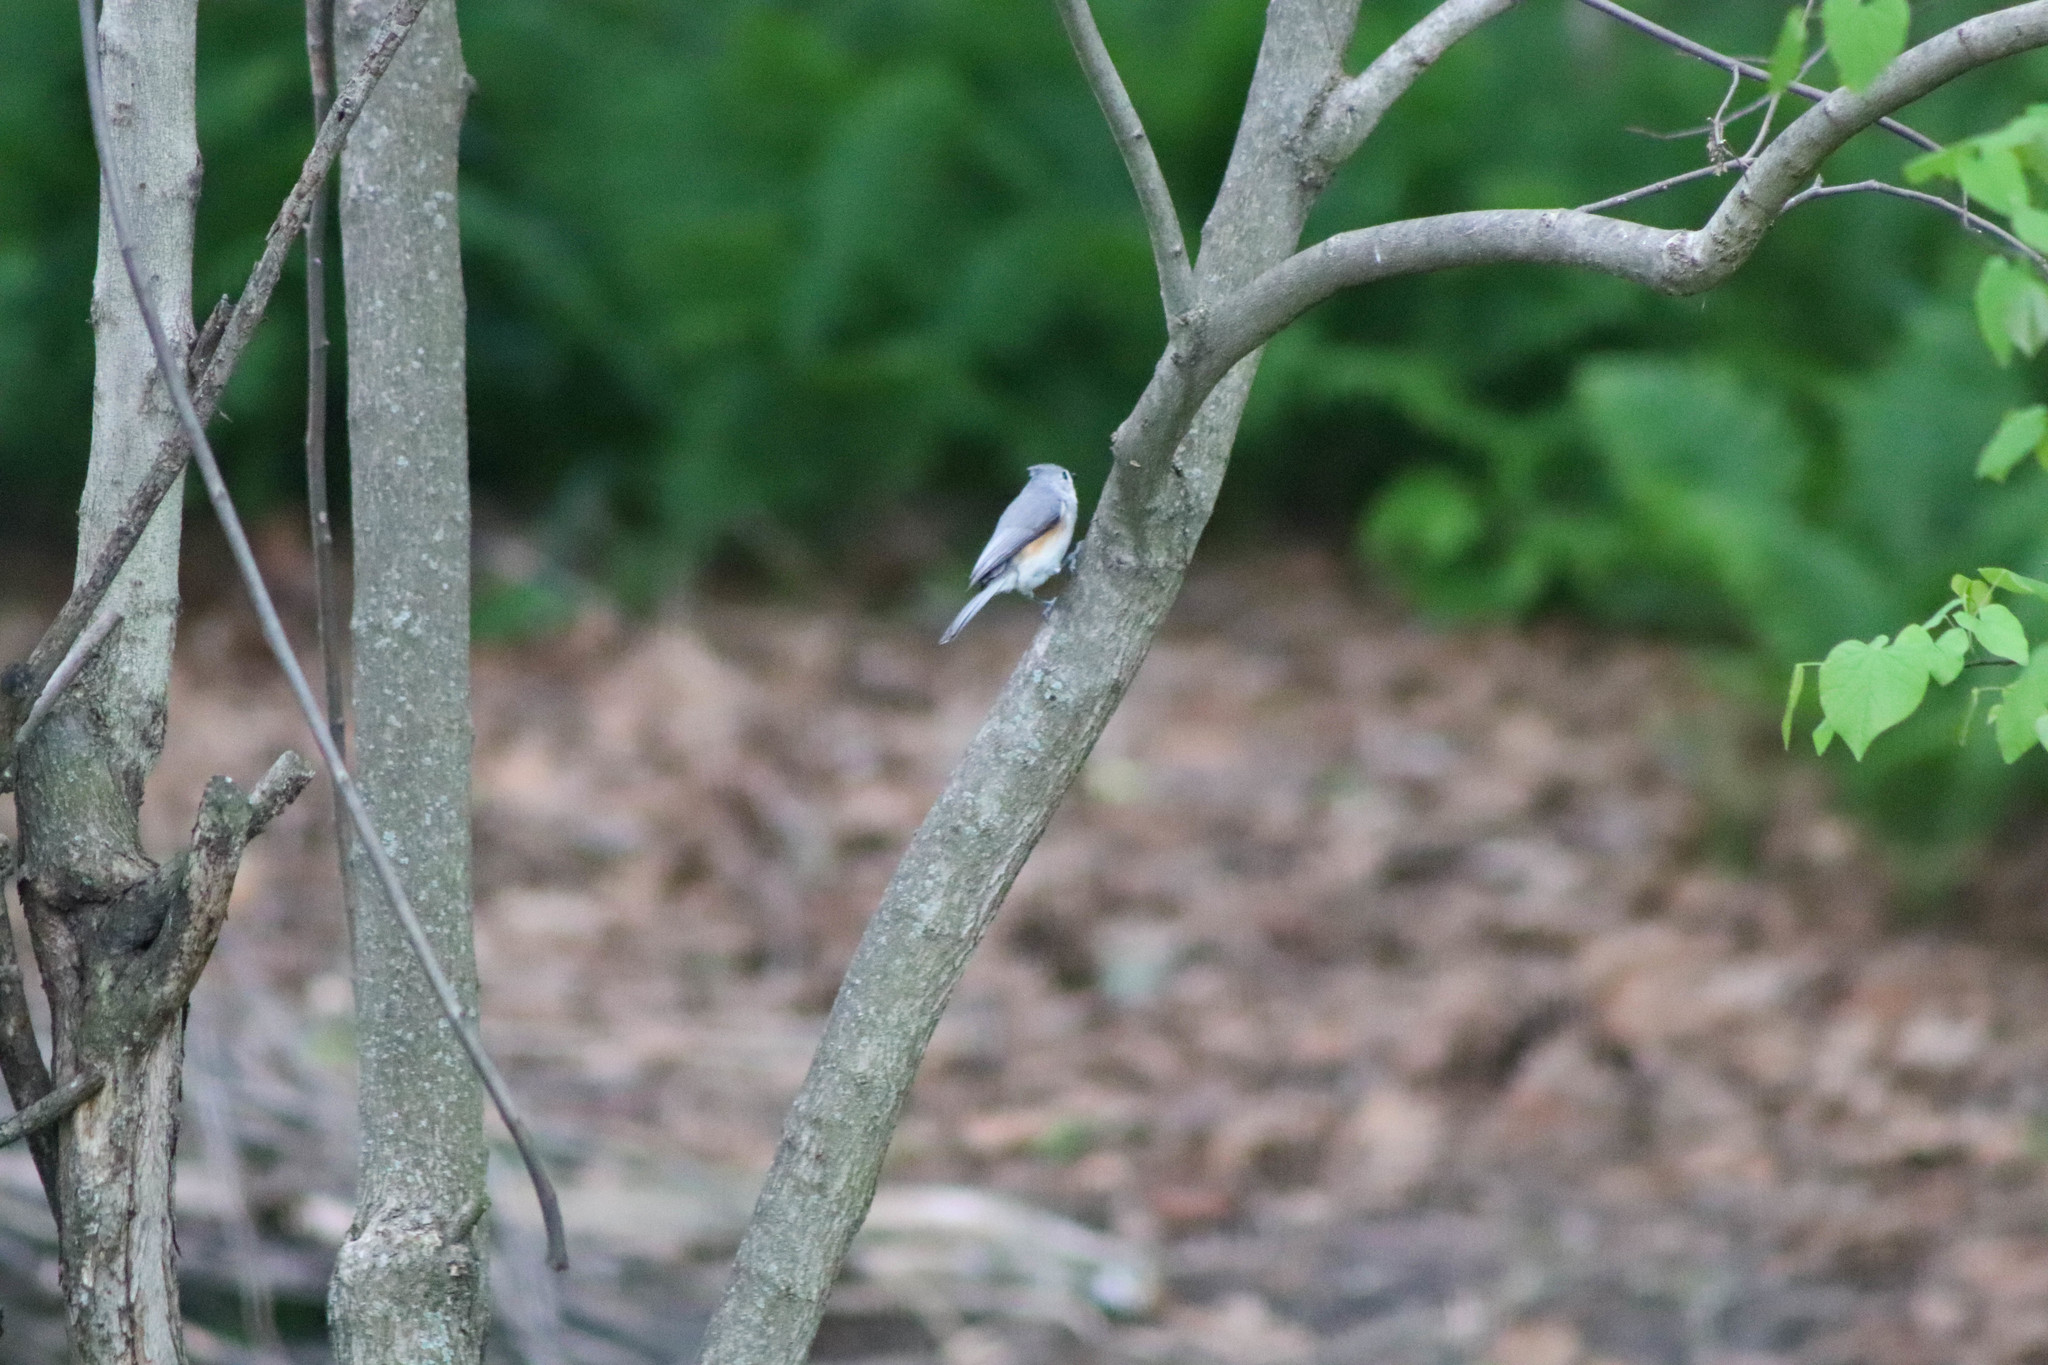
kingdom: Animalia
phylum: Chordata
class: Aves
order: Passeriformes
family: Paridae
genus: Baeolophus
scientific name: Baeolophus bicolor
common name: Tufted titmouse
